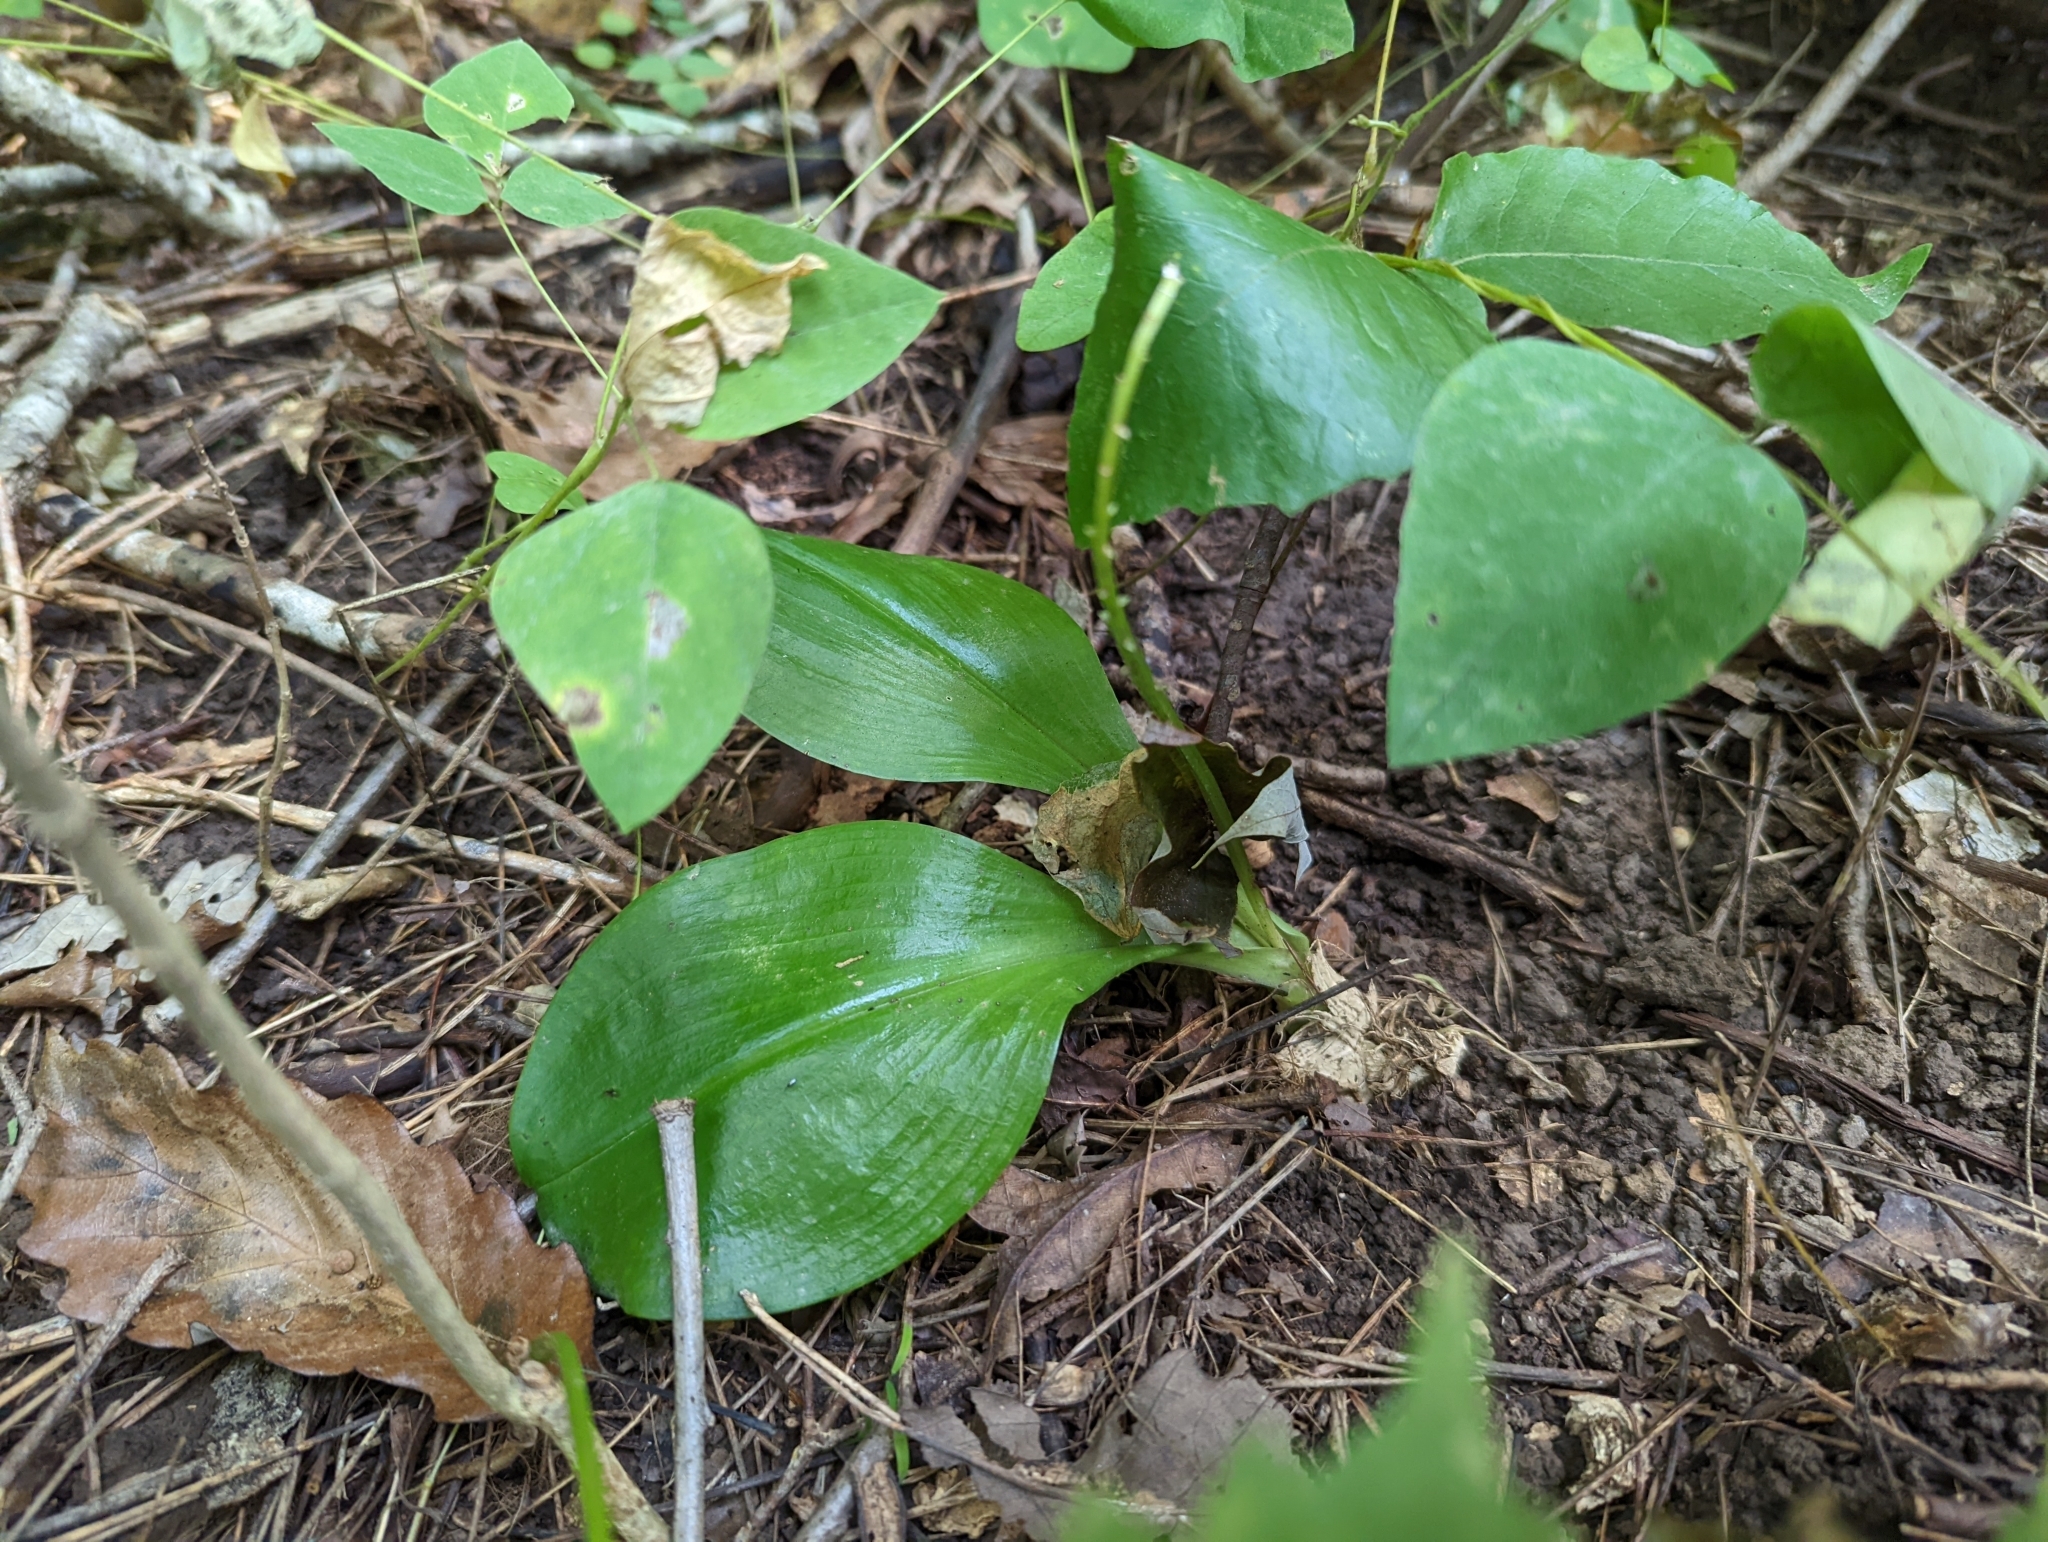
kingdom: Plantae
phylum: Tracheophyta
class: Liliopsida
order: Asparagales
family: Orchidaceae
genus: Liparis
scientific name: Liparis liliifolia
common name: Brown wide-lip orchid
